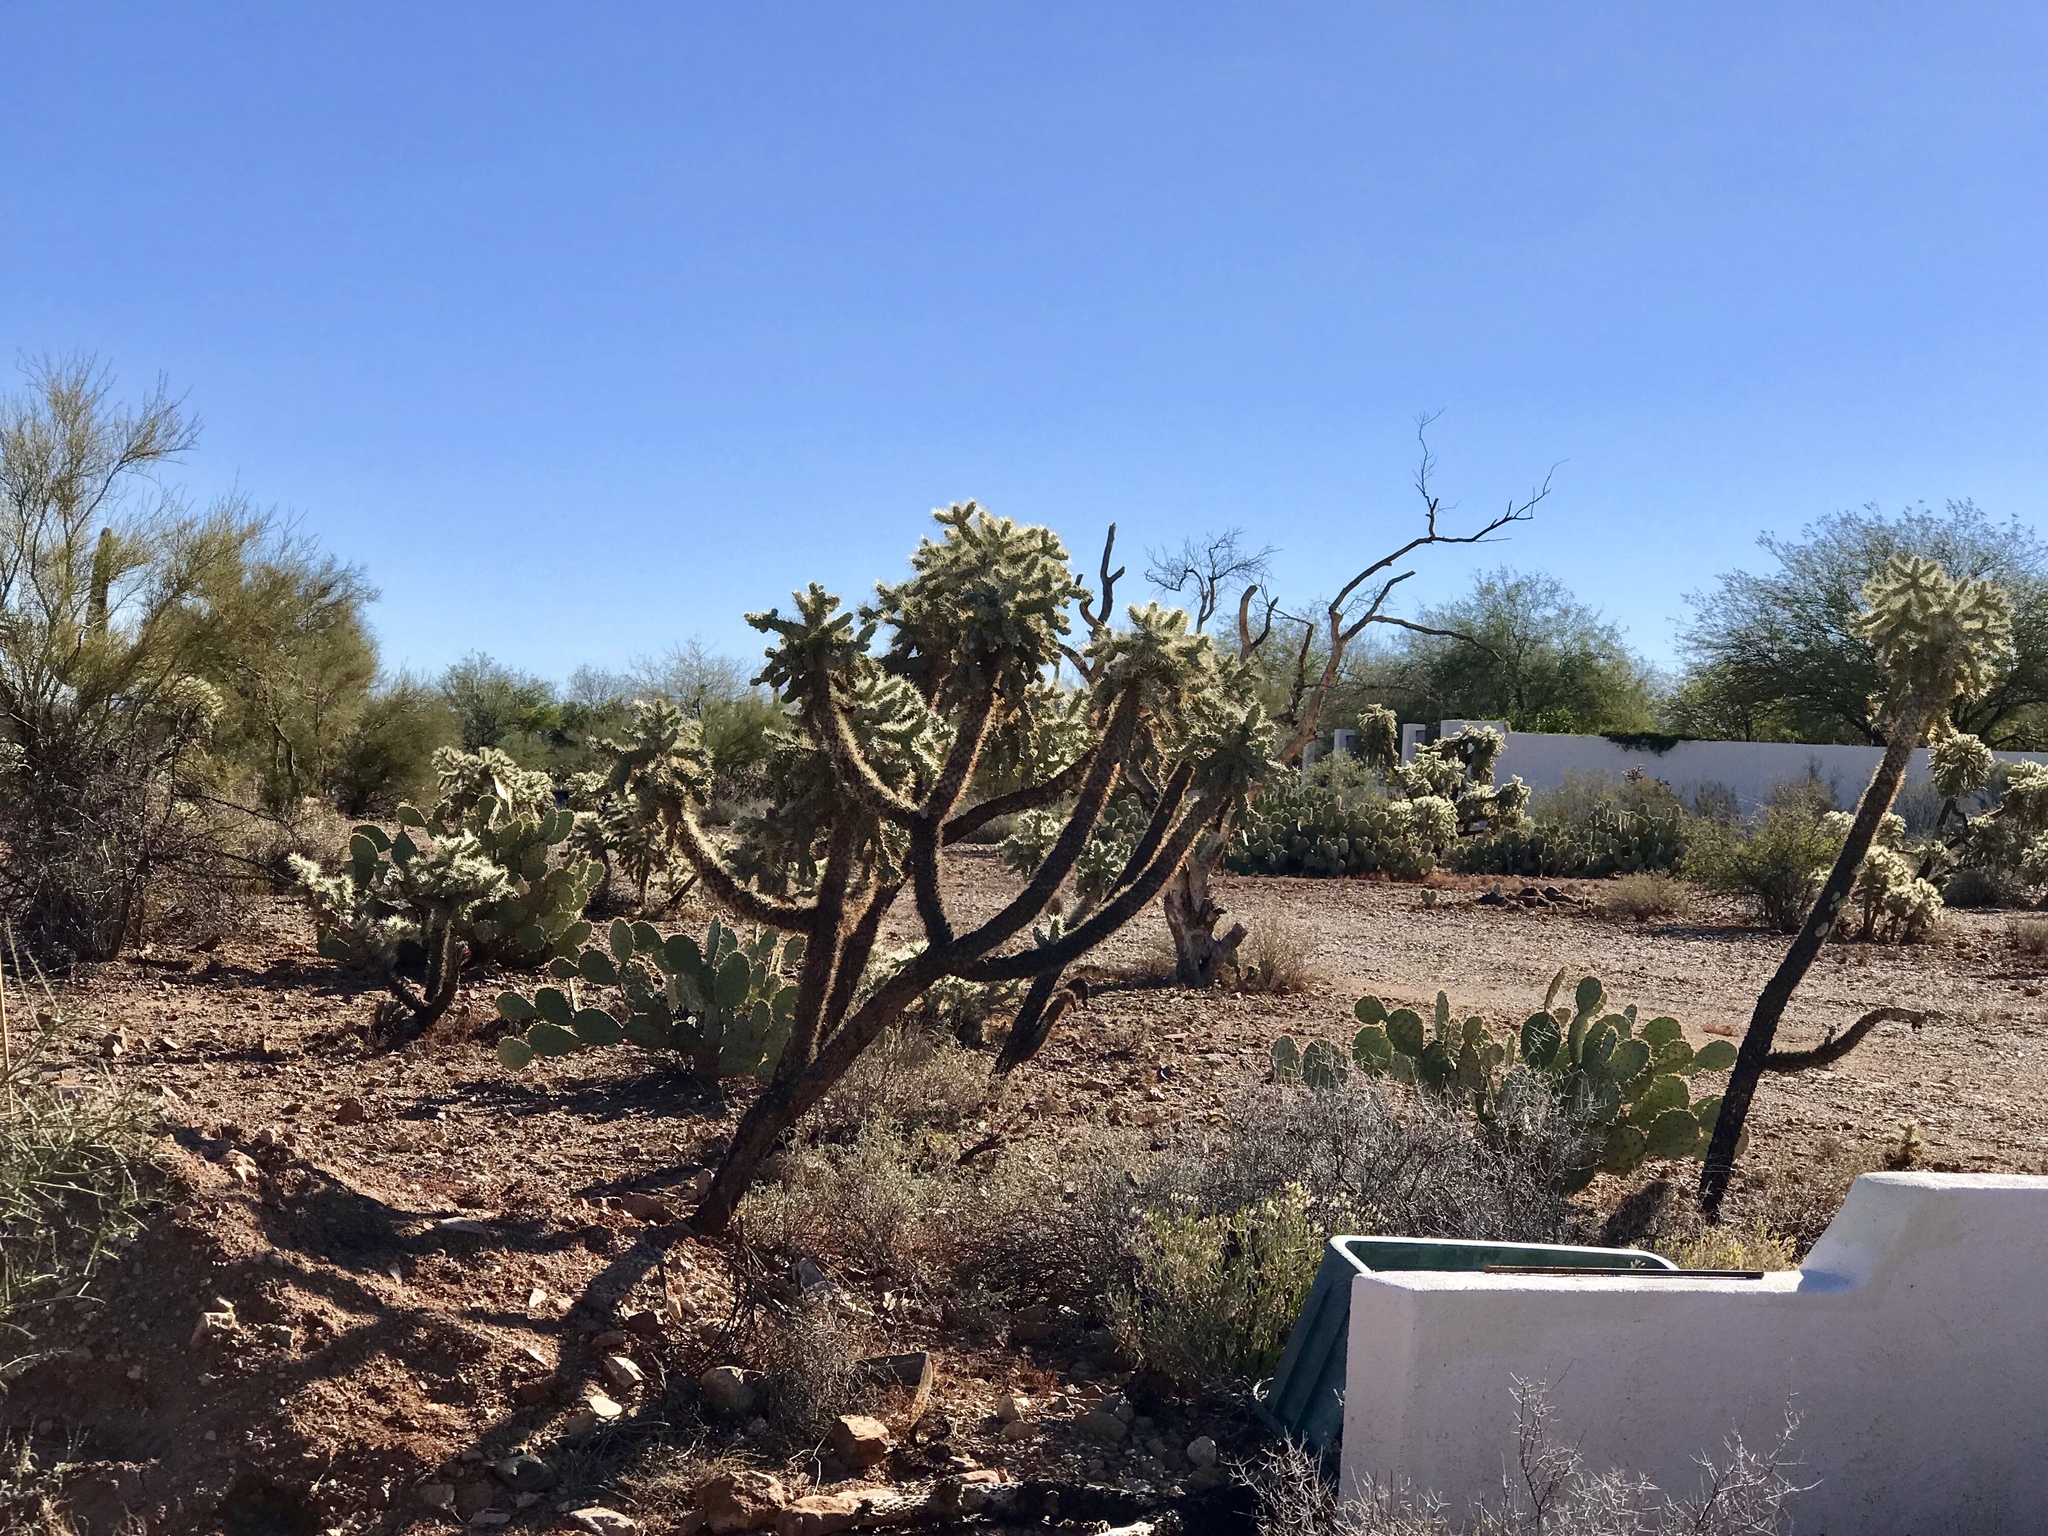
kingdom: Plantae
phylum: Tracheophyta
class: Magnoliopsida
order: Caryophyllales
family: Cactaceae
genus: Cylindropuntia
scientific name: Cylindropuntia fulgida
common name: Jumping cholla
